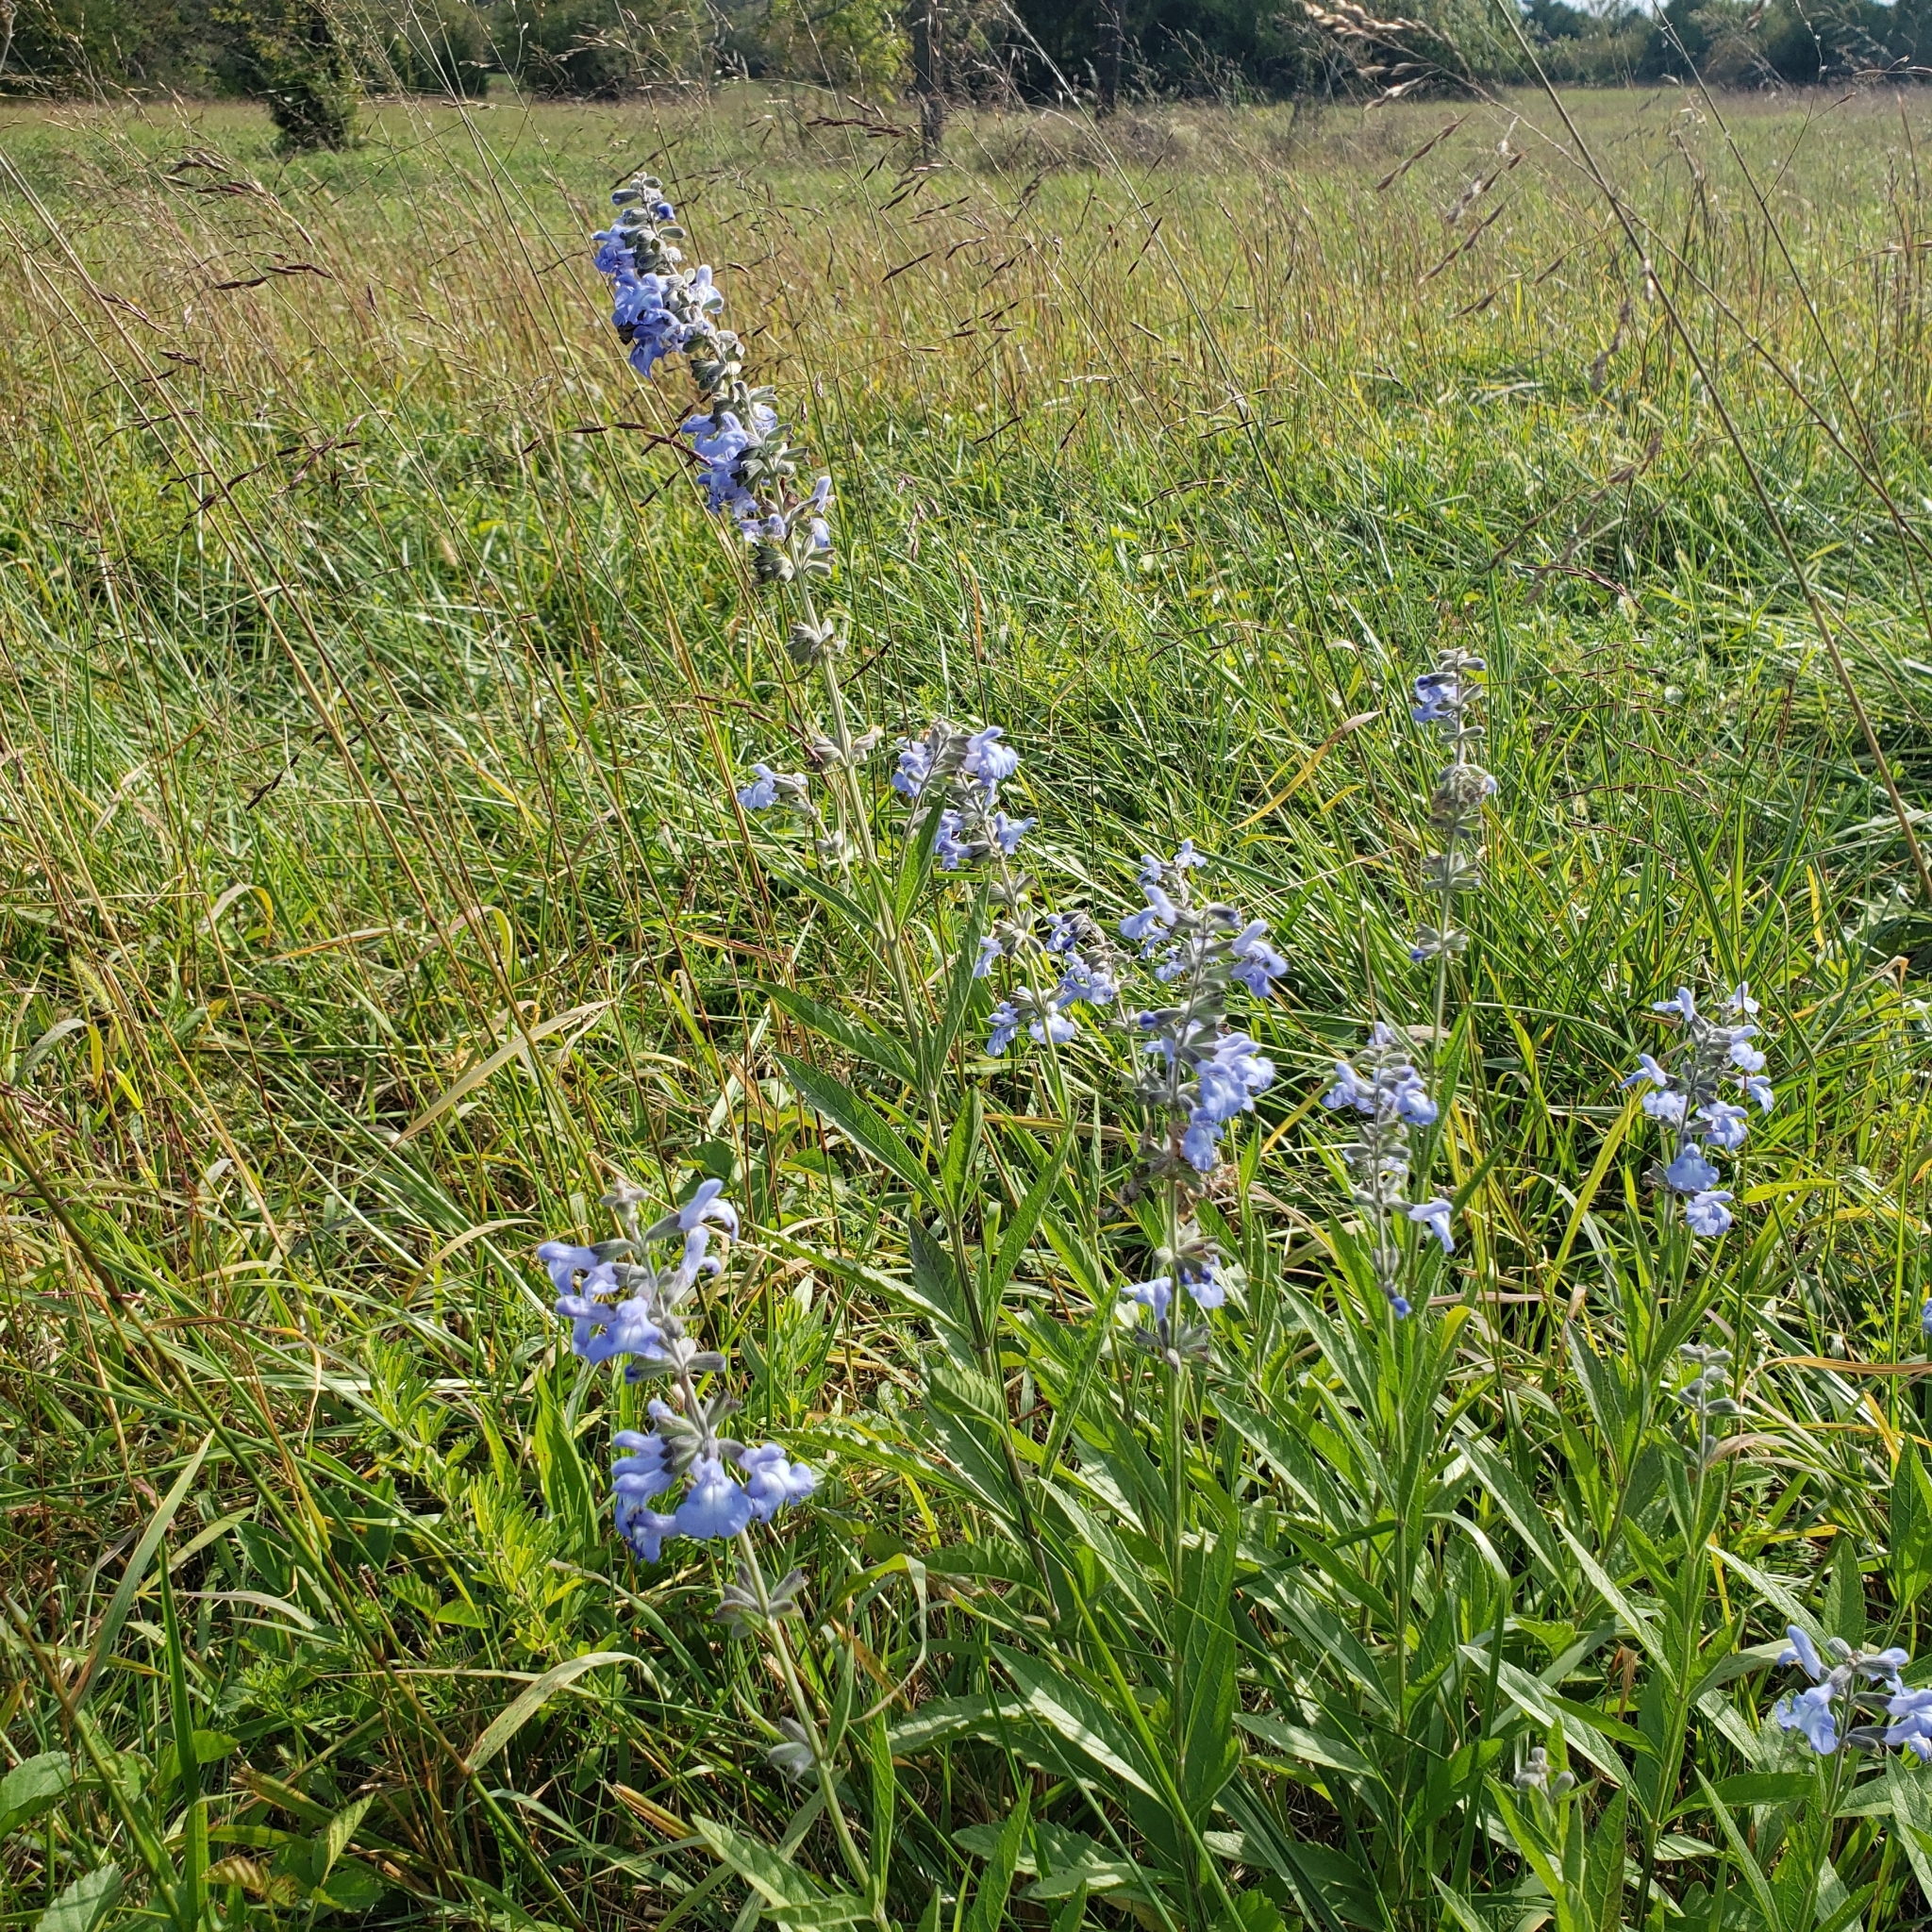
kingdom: Plantae
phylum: Tracheophyta
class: Magnoliopsida
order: Lamiales
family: Lamiaceae
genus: Salvia
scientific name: Salvia azurea
